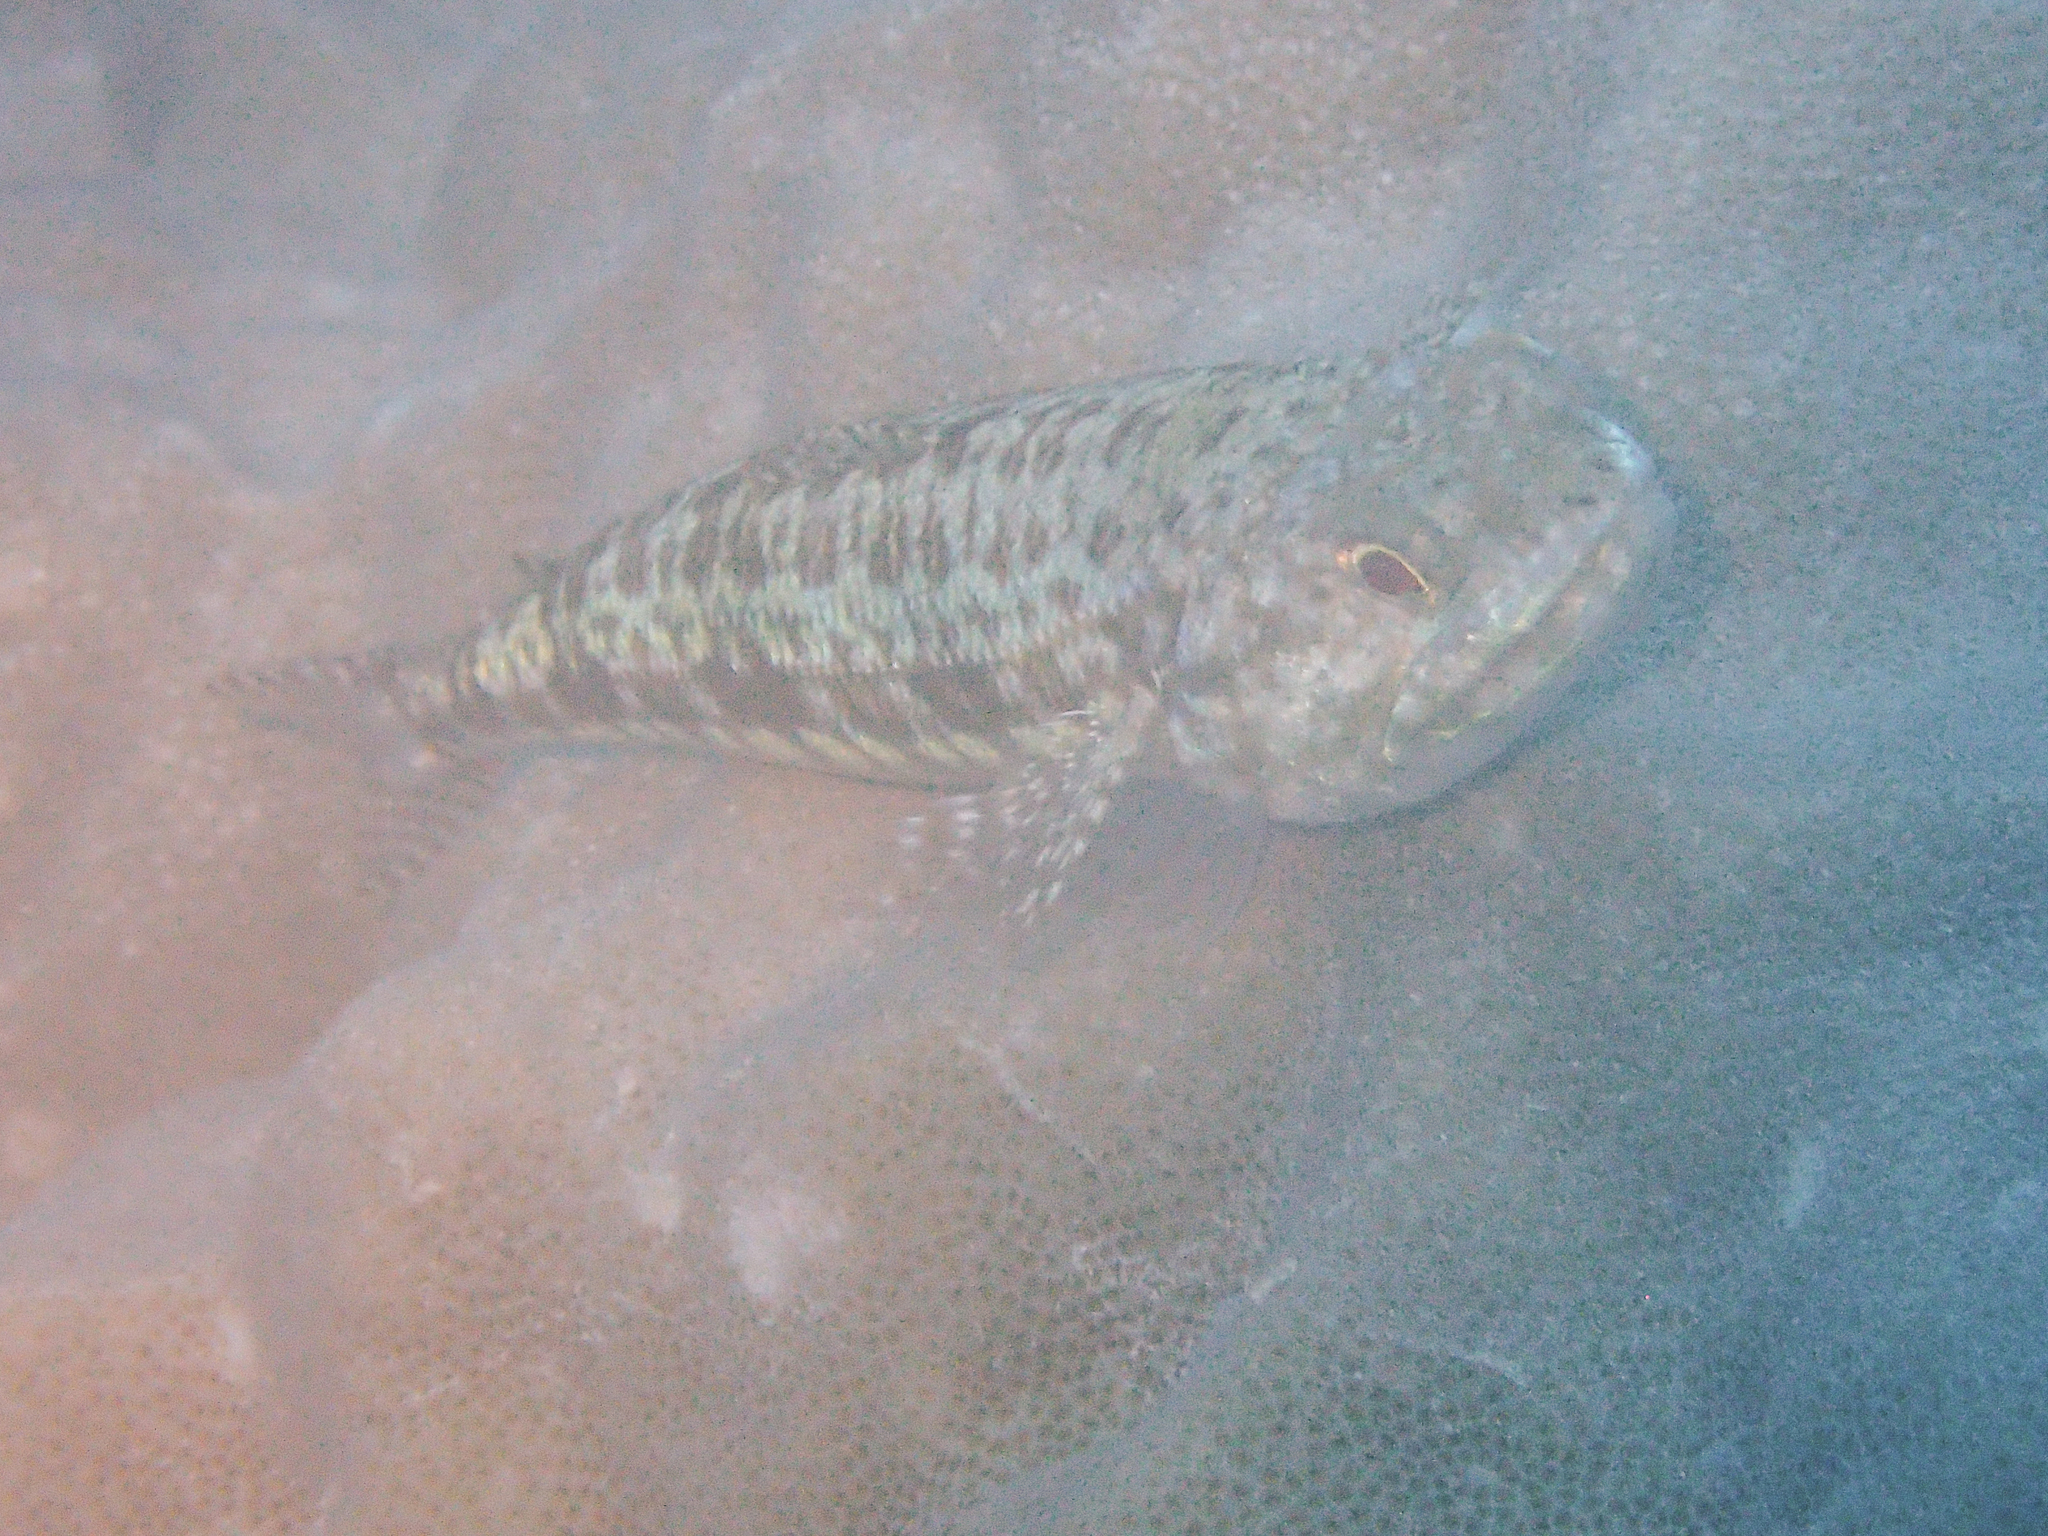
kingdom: Animalia
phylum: Chordata
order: Aulopiformes
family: Synodontidae
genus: Synodus
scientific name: Synodus variegatus
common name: Variegated lizardfish
